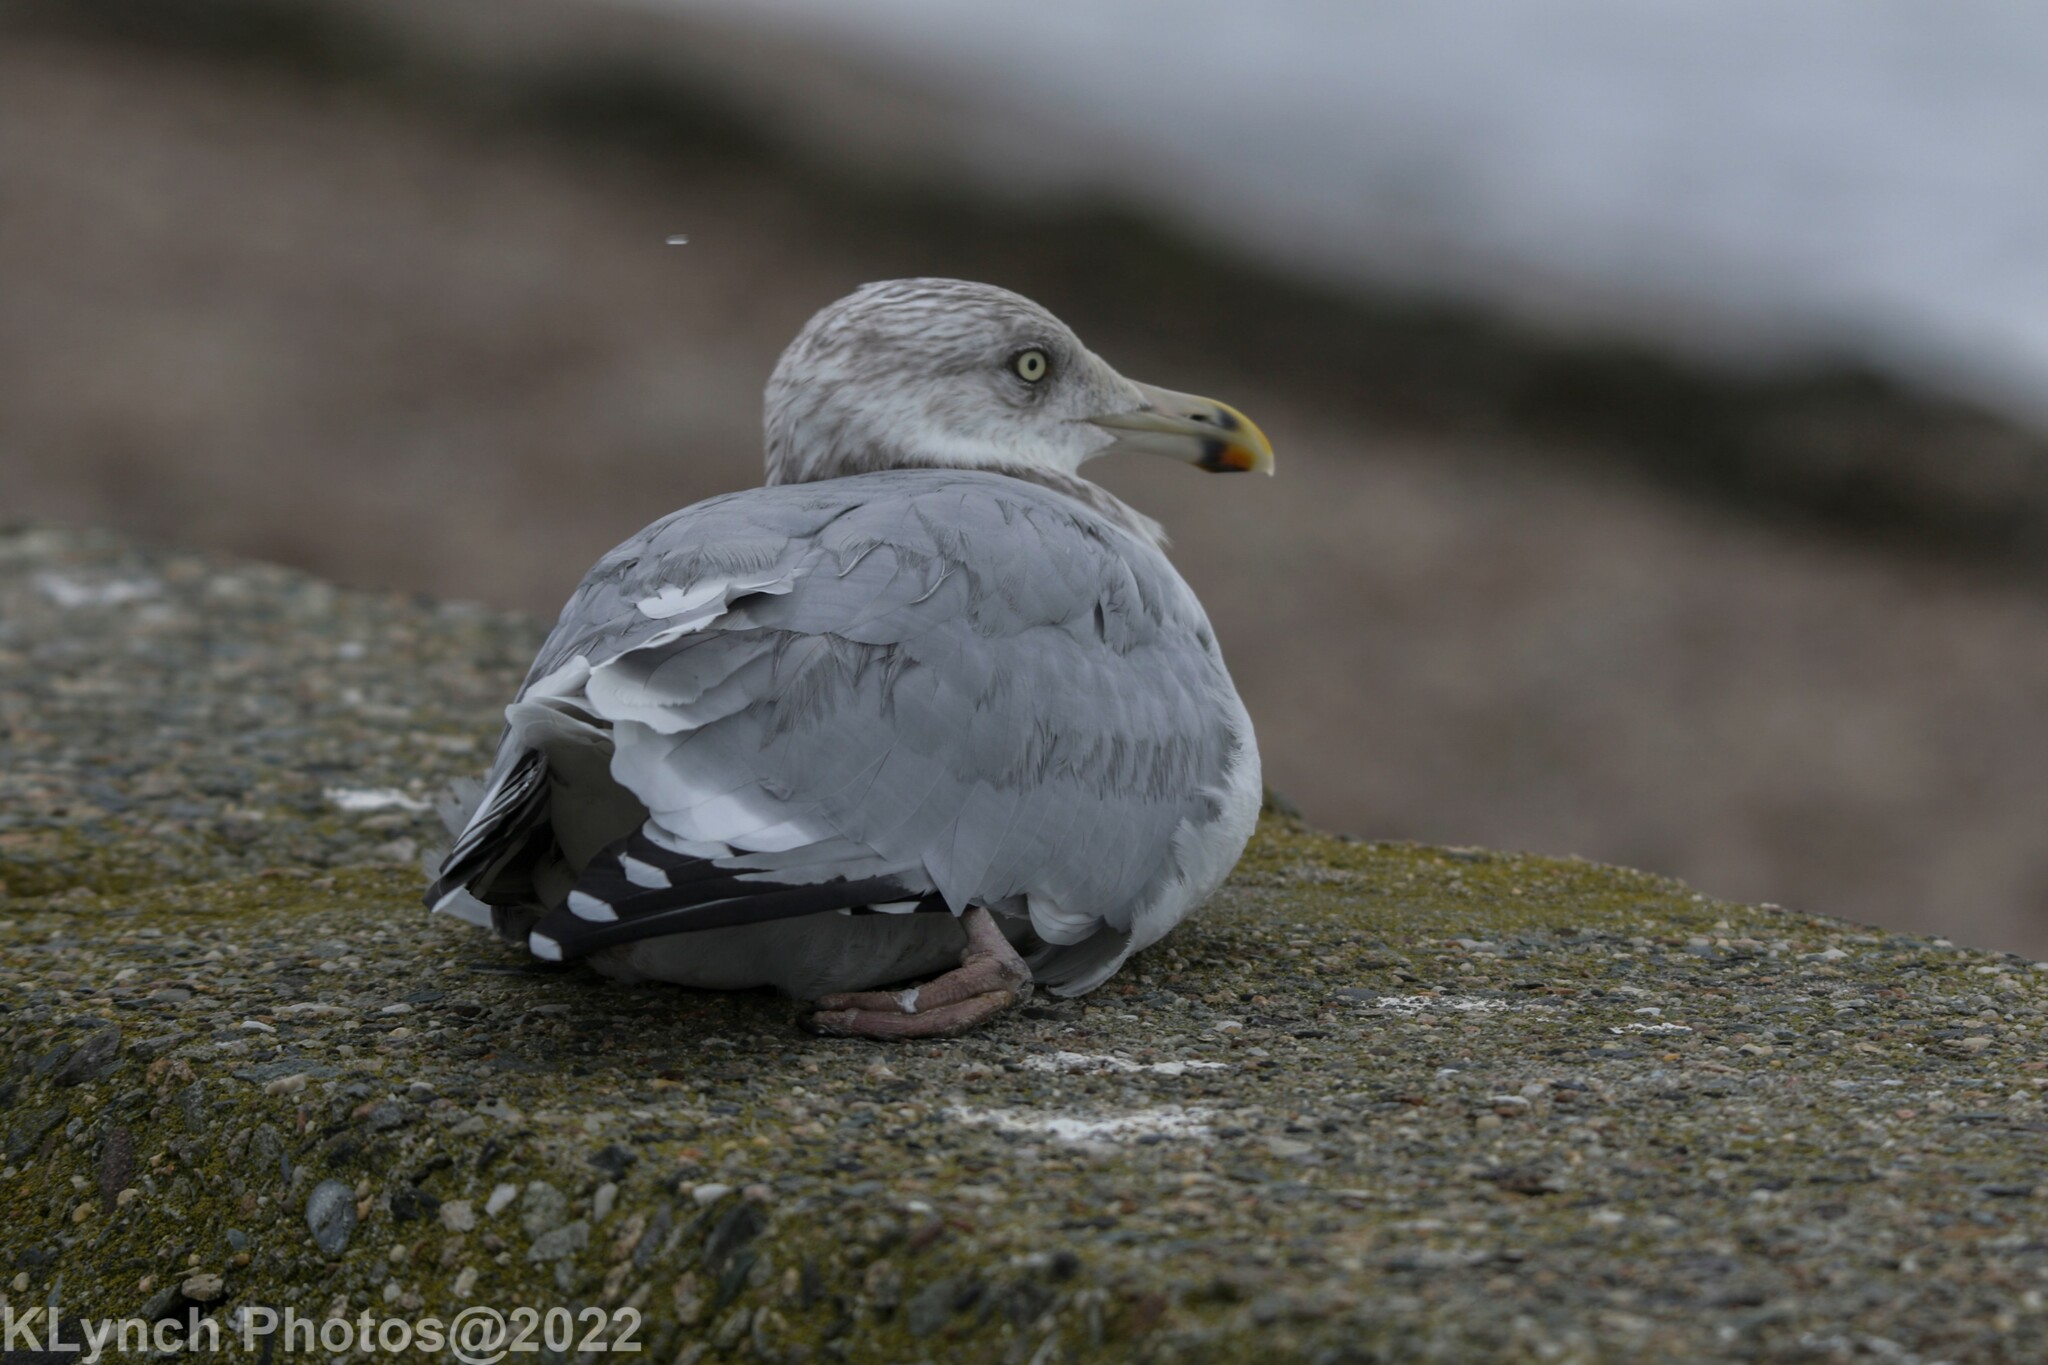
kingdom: Animalia
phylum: Chordata
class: Aves
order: Charadriiformes
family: Laridae
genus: Larus
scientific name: Larus argentatus
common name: Herring gull
